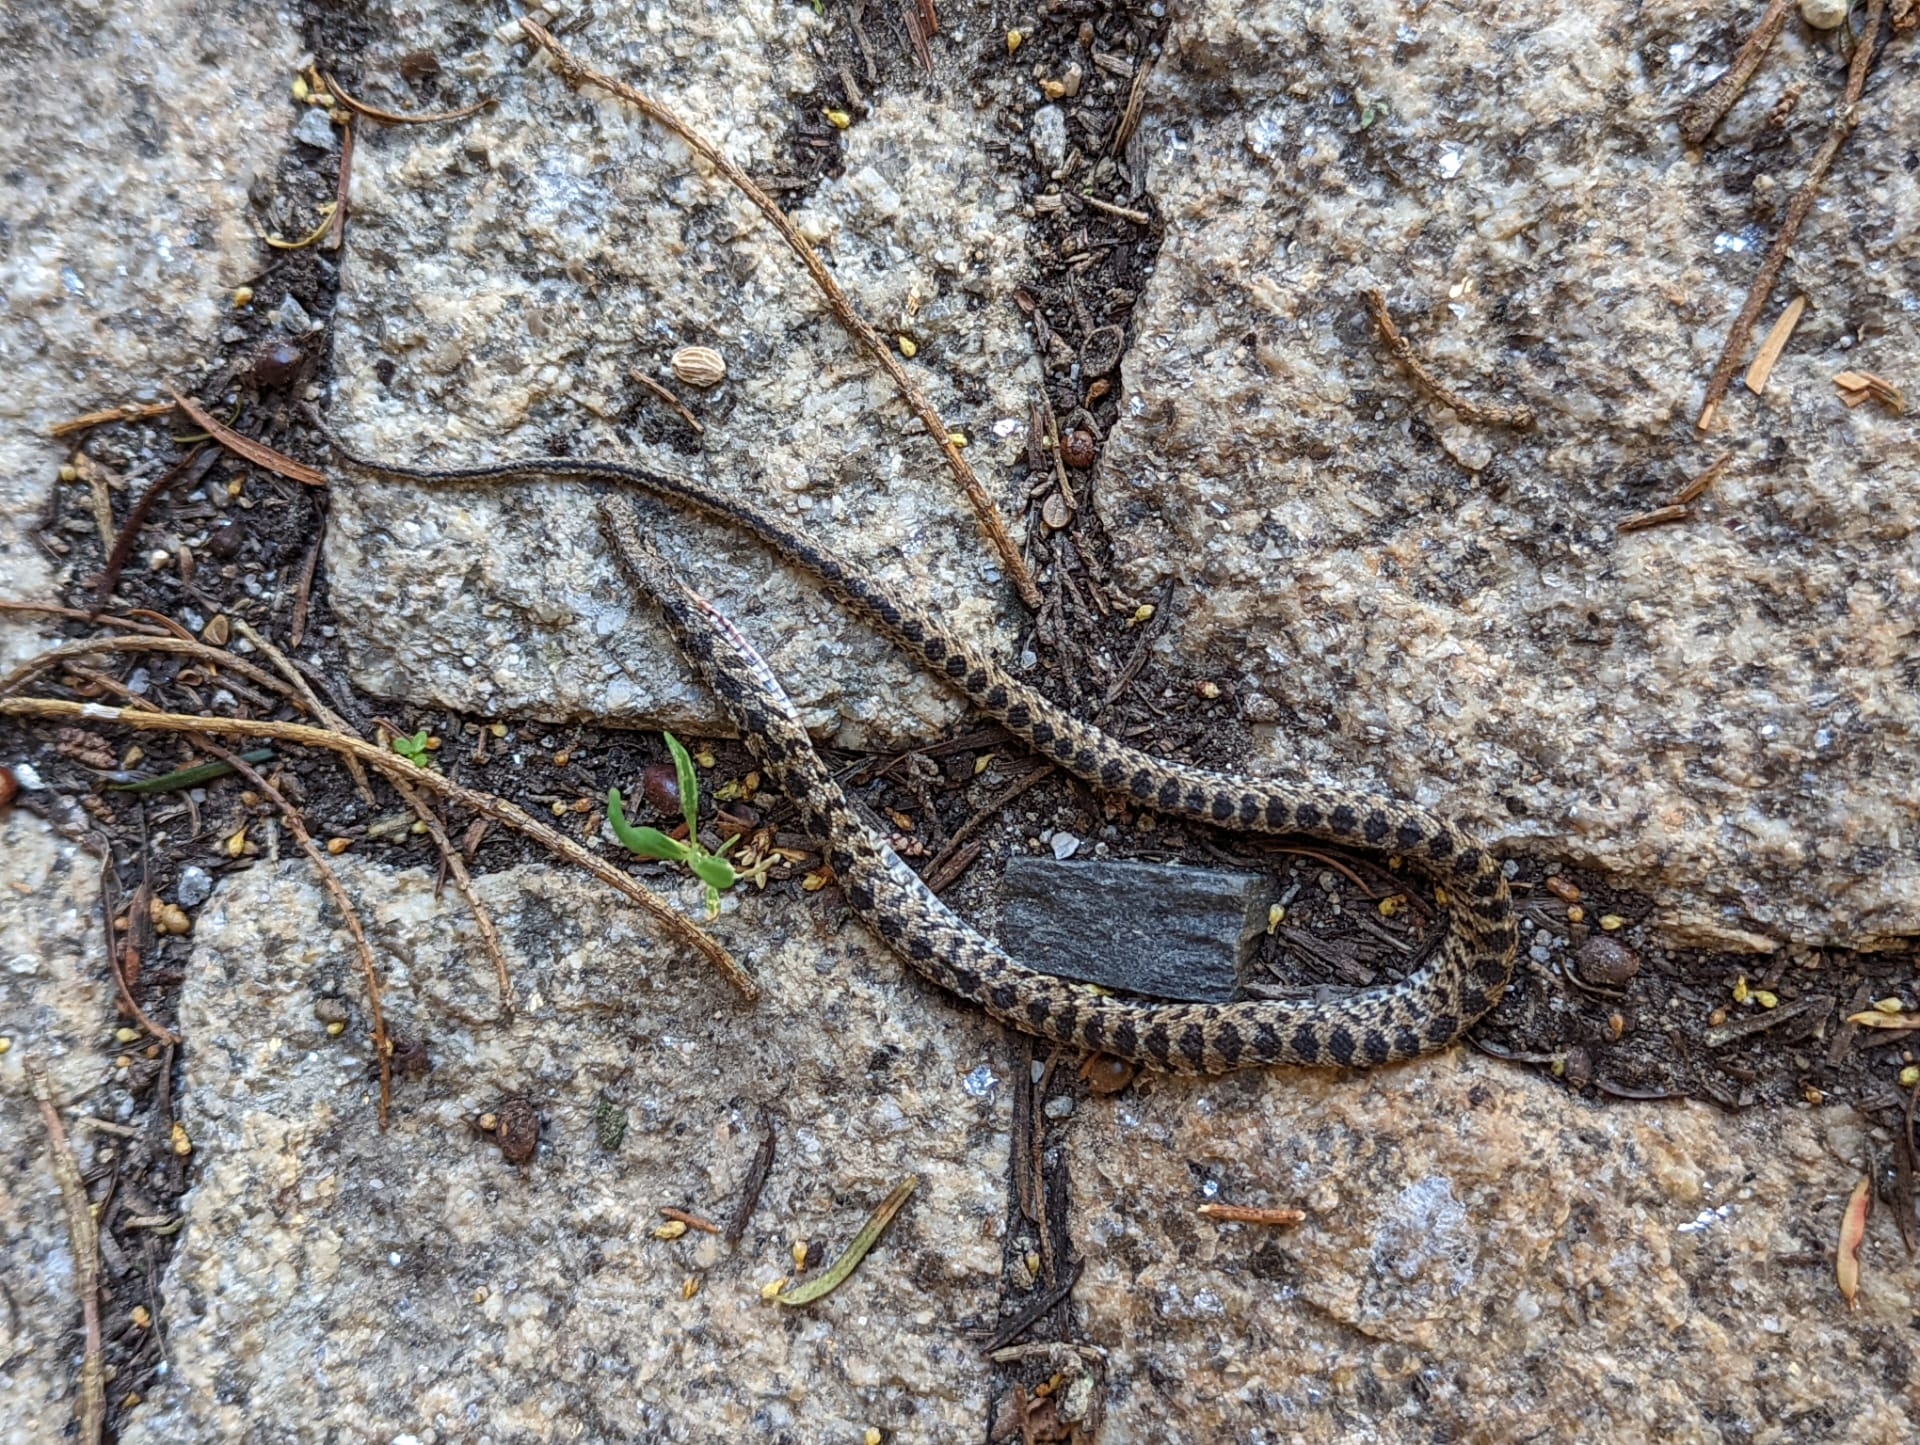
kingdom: Animalia
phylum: Chordata
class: Squamata
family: Colubridae
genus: Hemorrhois
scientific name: Hemorrhois hippocrepis
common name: Horseshoe whip snake
